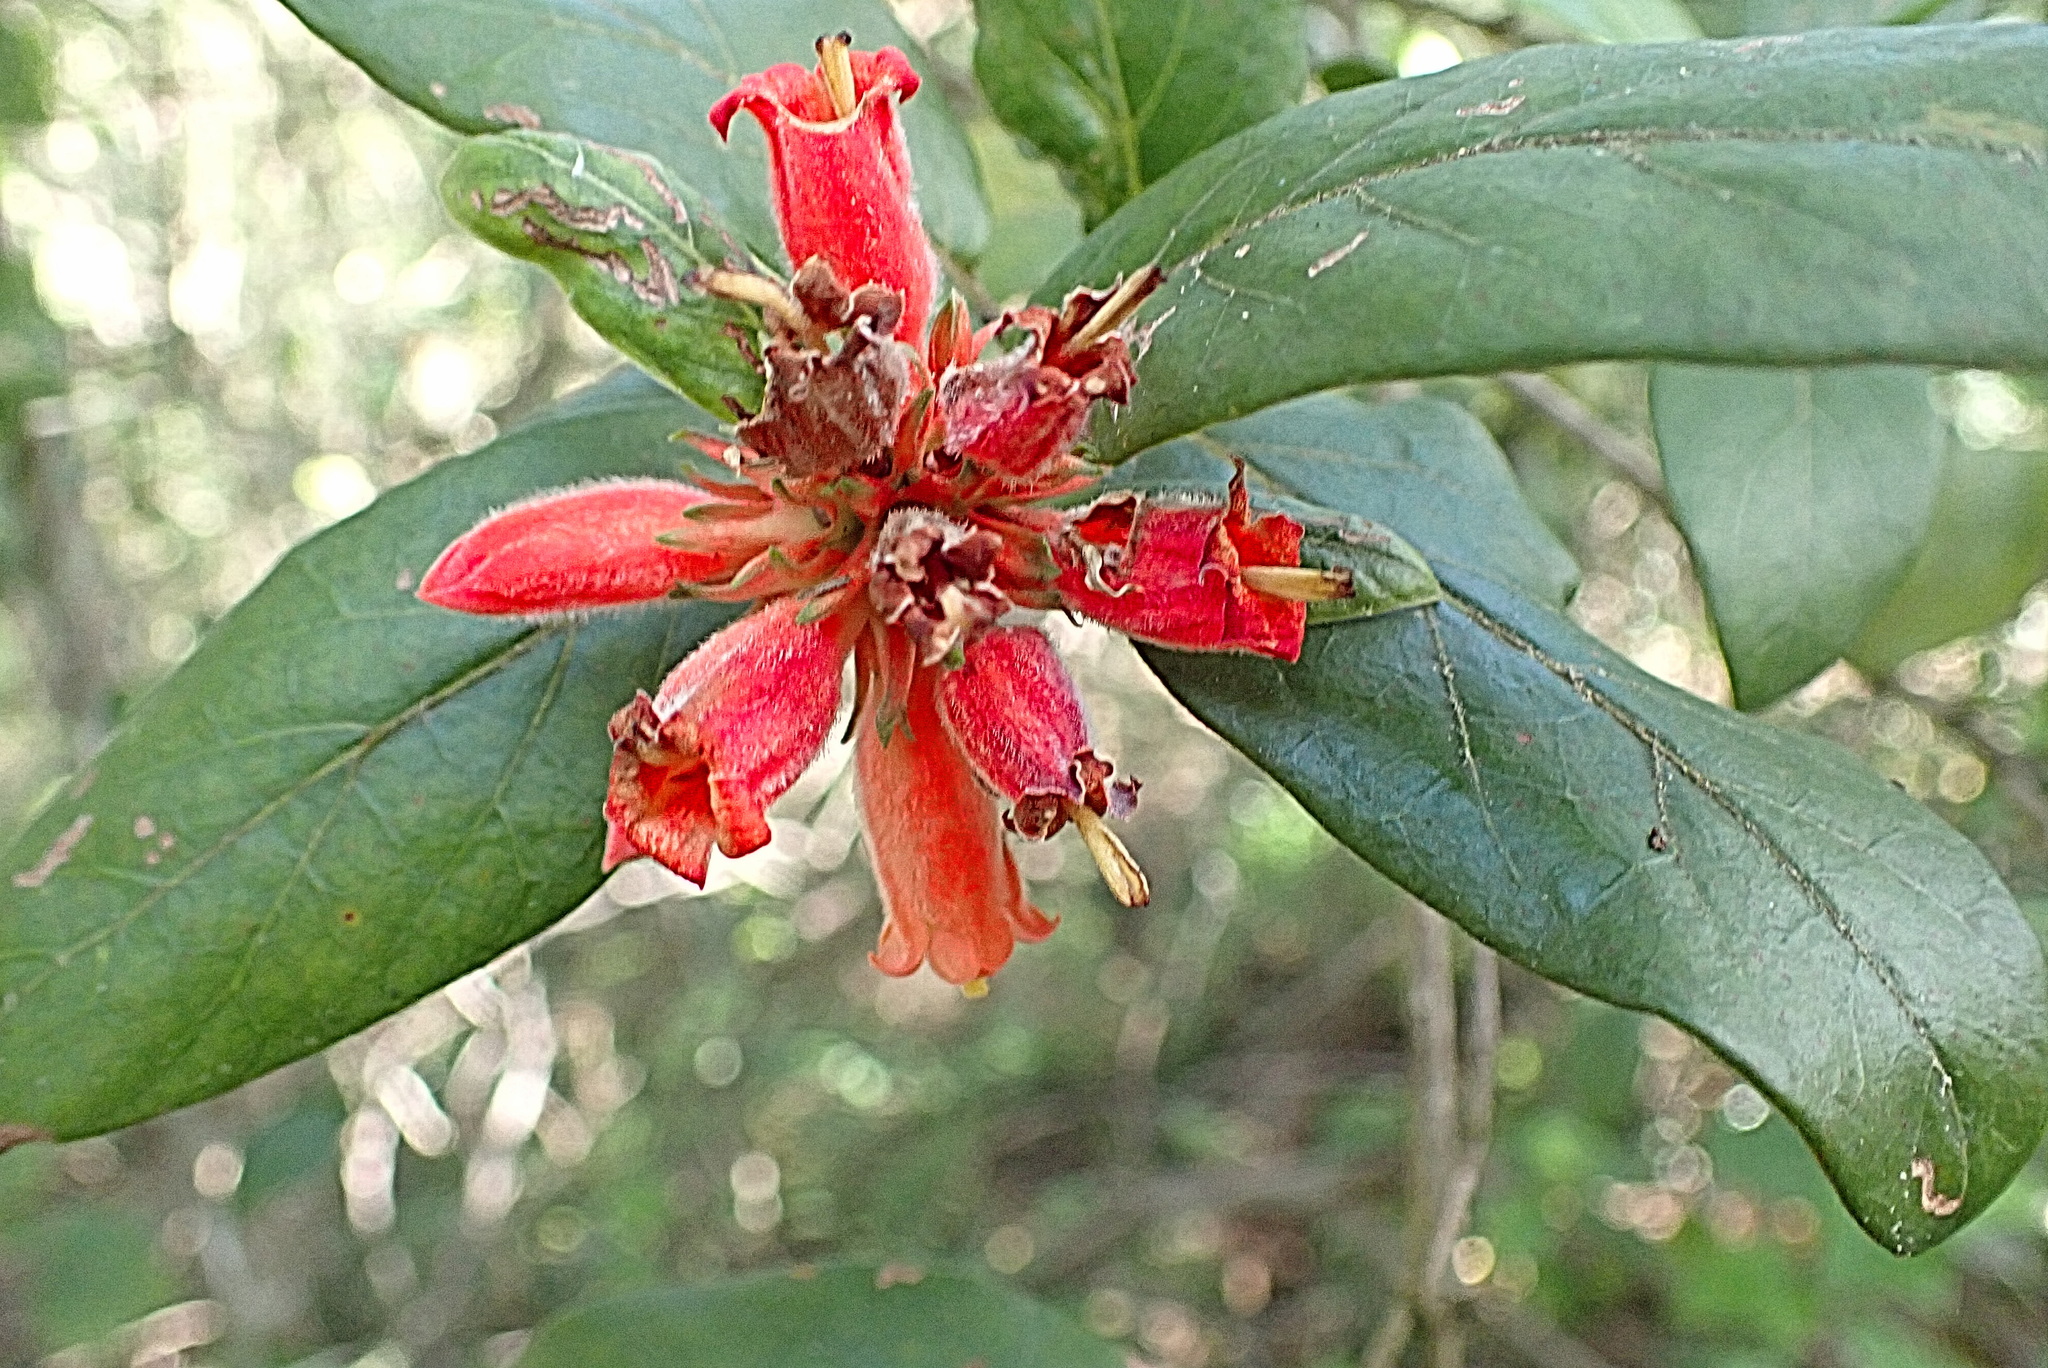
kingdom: Plantae
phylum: Tracheophyta
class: Magnoliopsida
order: Gentianales
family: Rubiaceae
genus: Burchellia
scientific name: Burchellia bubalina
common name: Wild pomegranate
